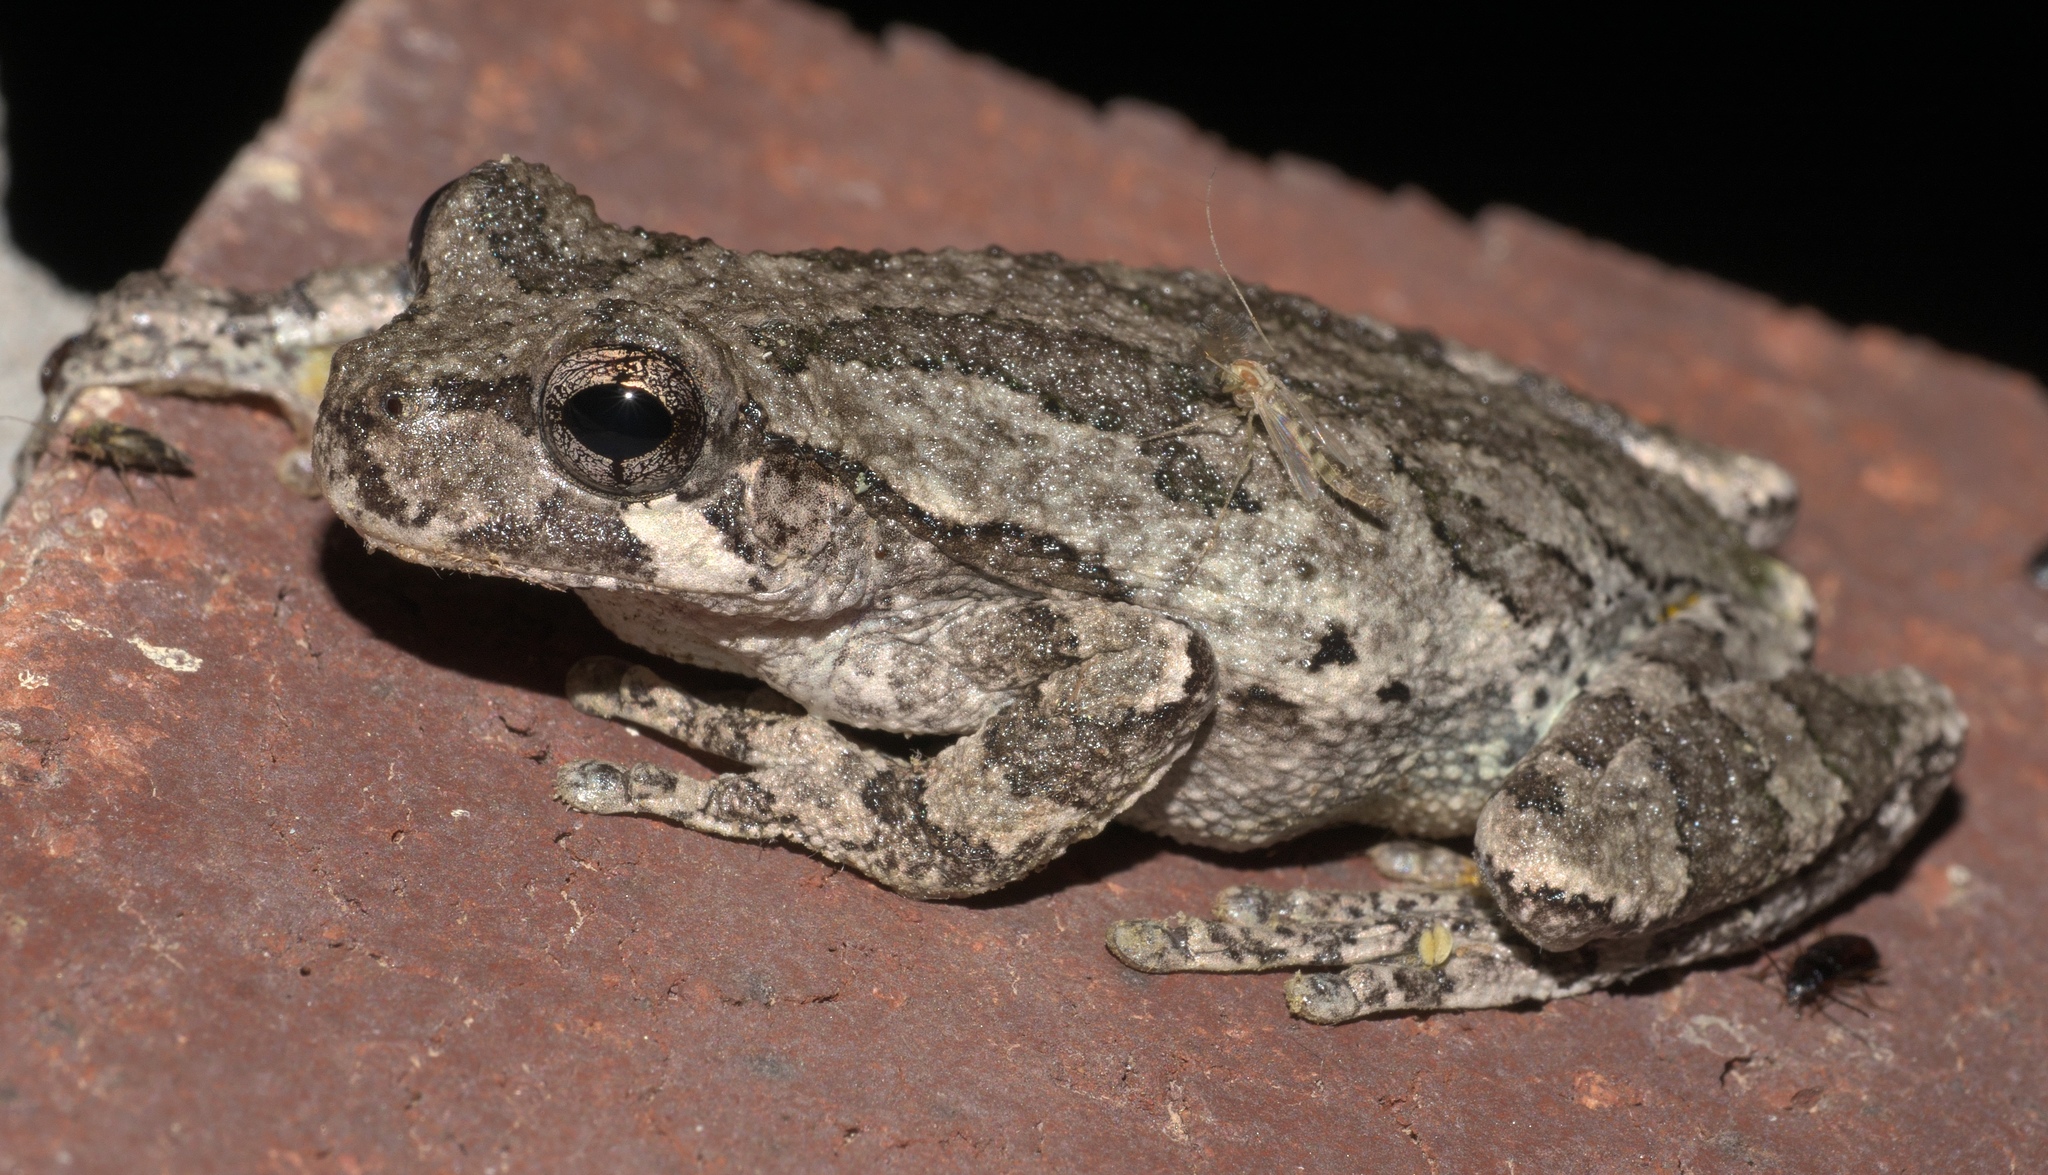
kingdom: Animalia
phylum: Chordata
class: Amphibia
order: Anura
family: Hylidae
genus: Hyla
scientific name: Hyla
